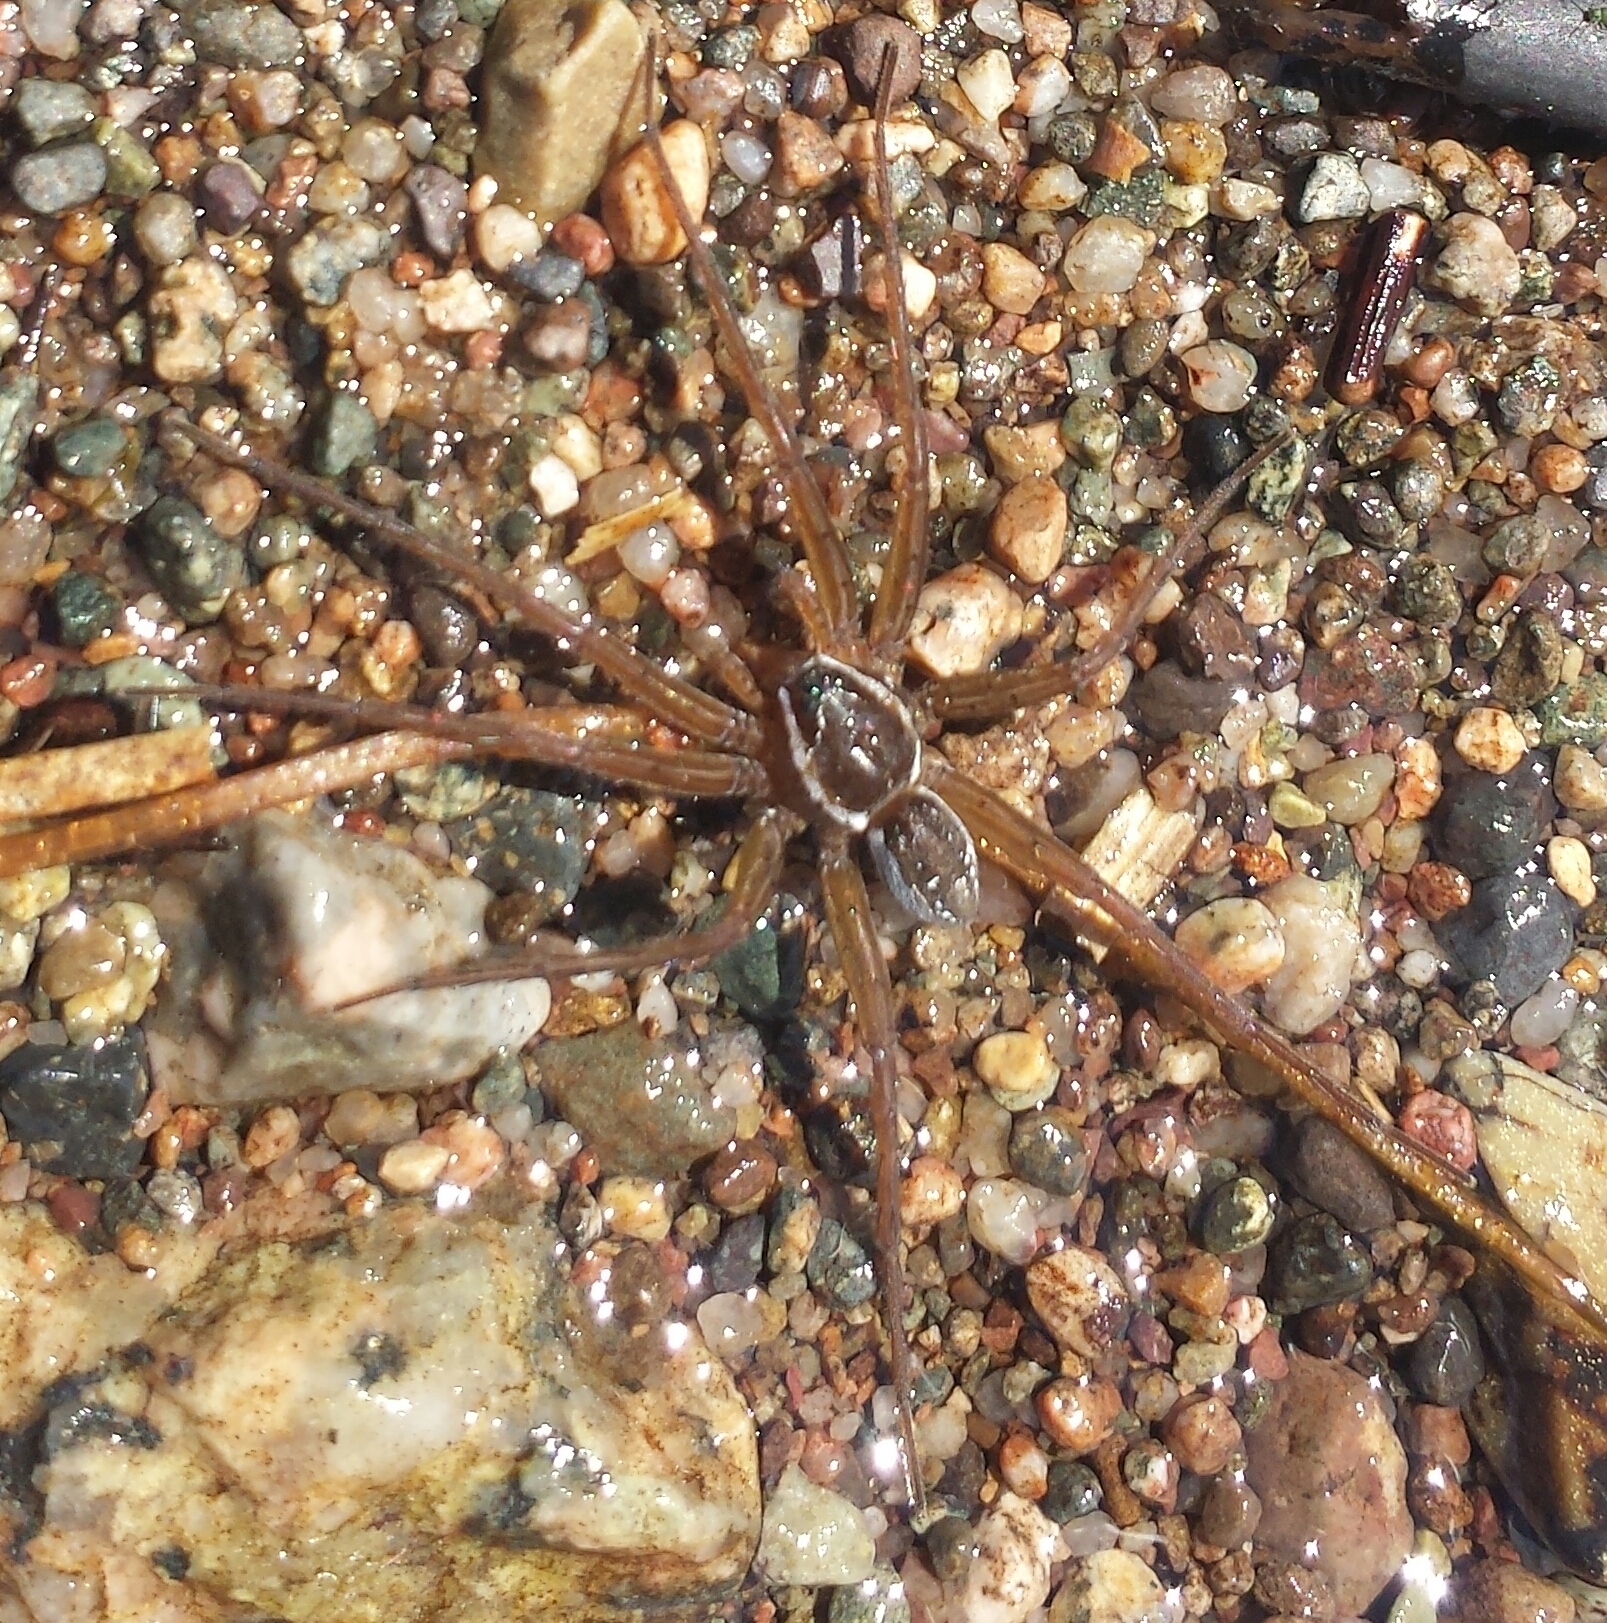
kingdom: Animalia
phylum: Arthropoda
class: Arachnida
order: Araneae
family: Pisauridae
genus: Dolomedes
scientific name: Dolomedes triton
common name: Six-spotted fishing spider
